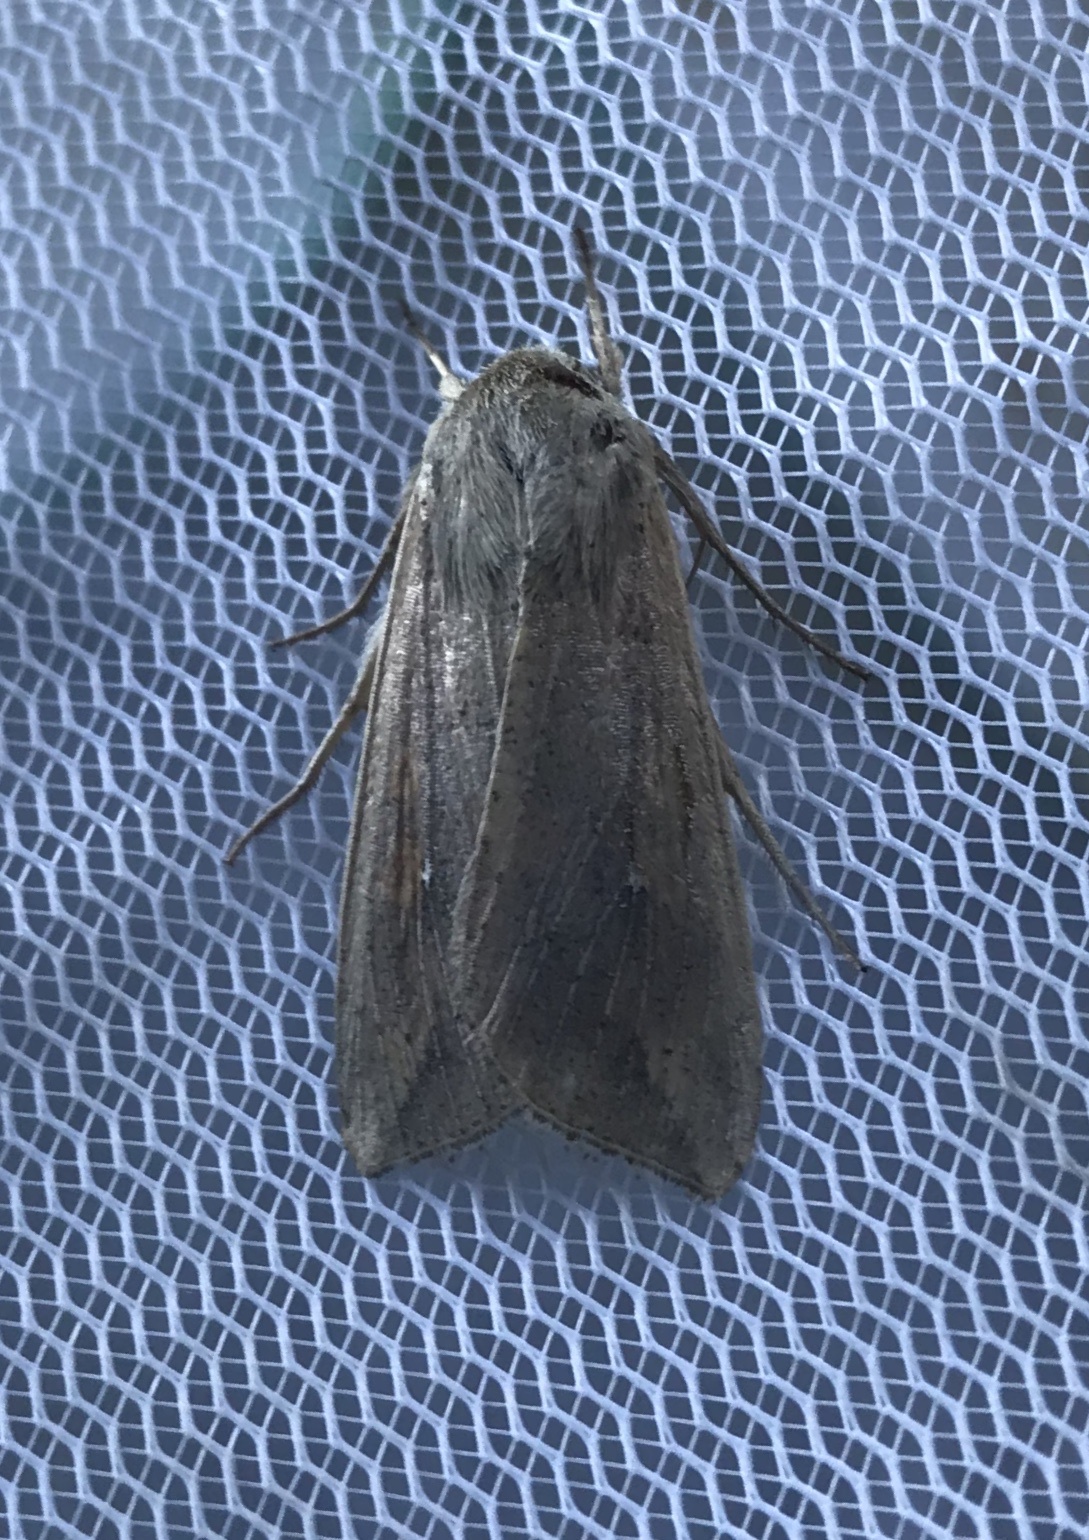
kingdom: Animalia
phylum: Arthropoda
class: Insecta
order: Lepidoptera
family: Noctuidae
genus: Mythimna
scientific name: Mythimna unipuncta
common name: White-speck
